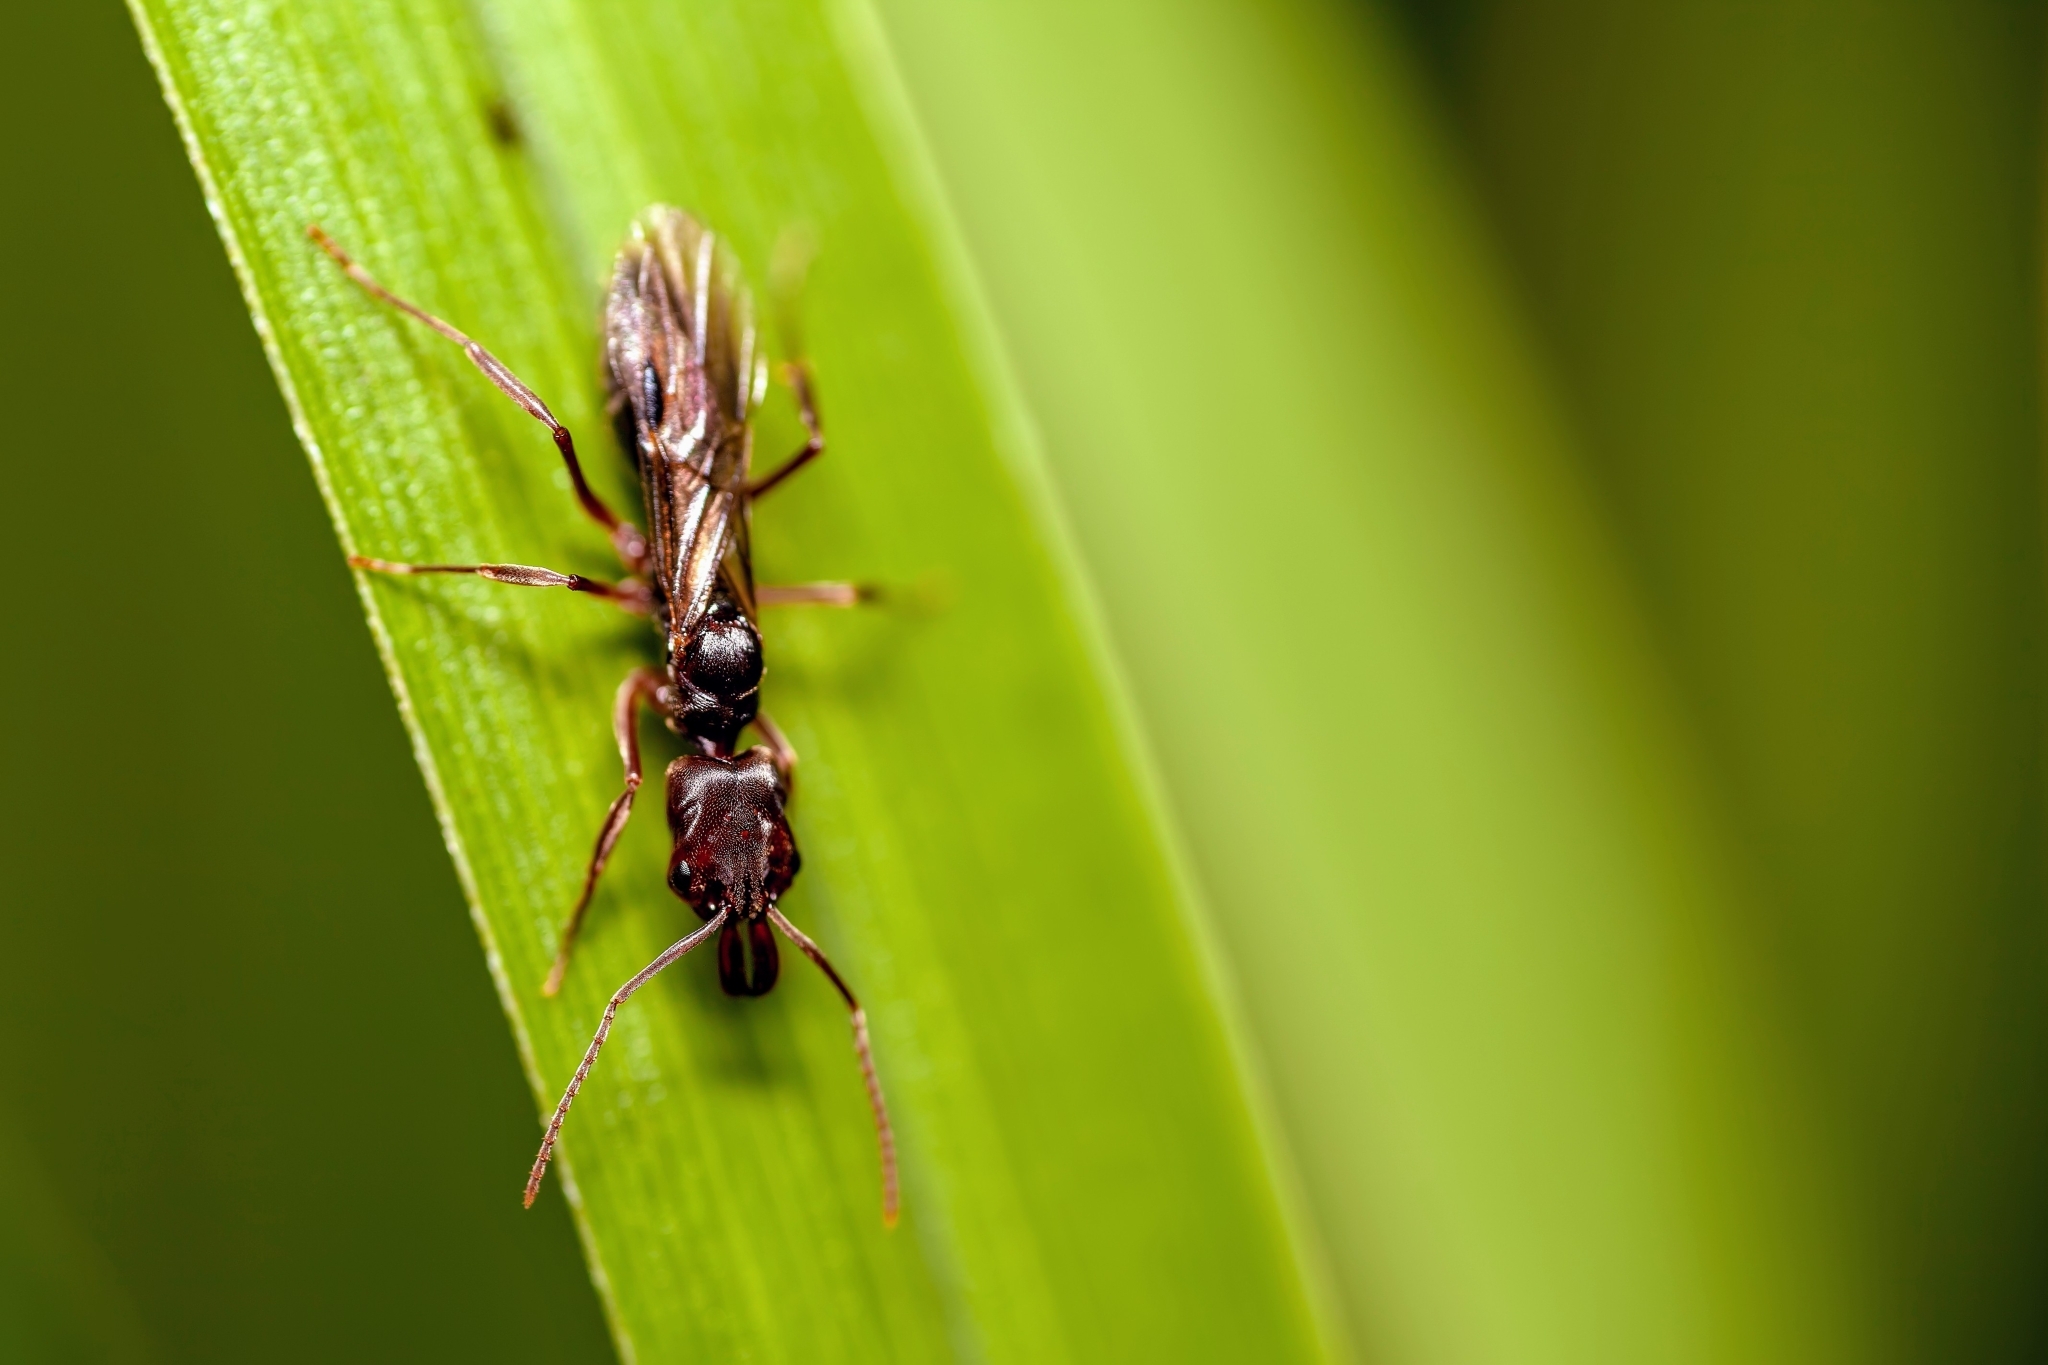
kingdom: Animalia
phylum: Arthropoda
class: Insecta
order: Hymenoptera
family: Formicidae
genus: Odontomachus
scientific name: Odontomachus ruginodis
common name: Trapjaw ant
